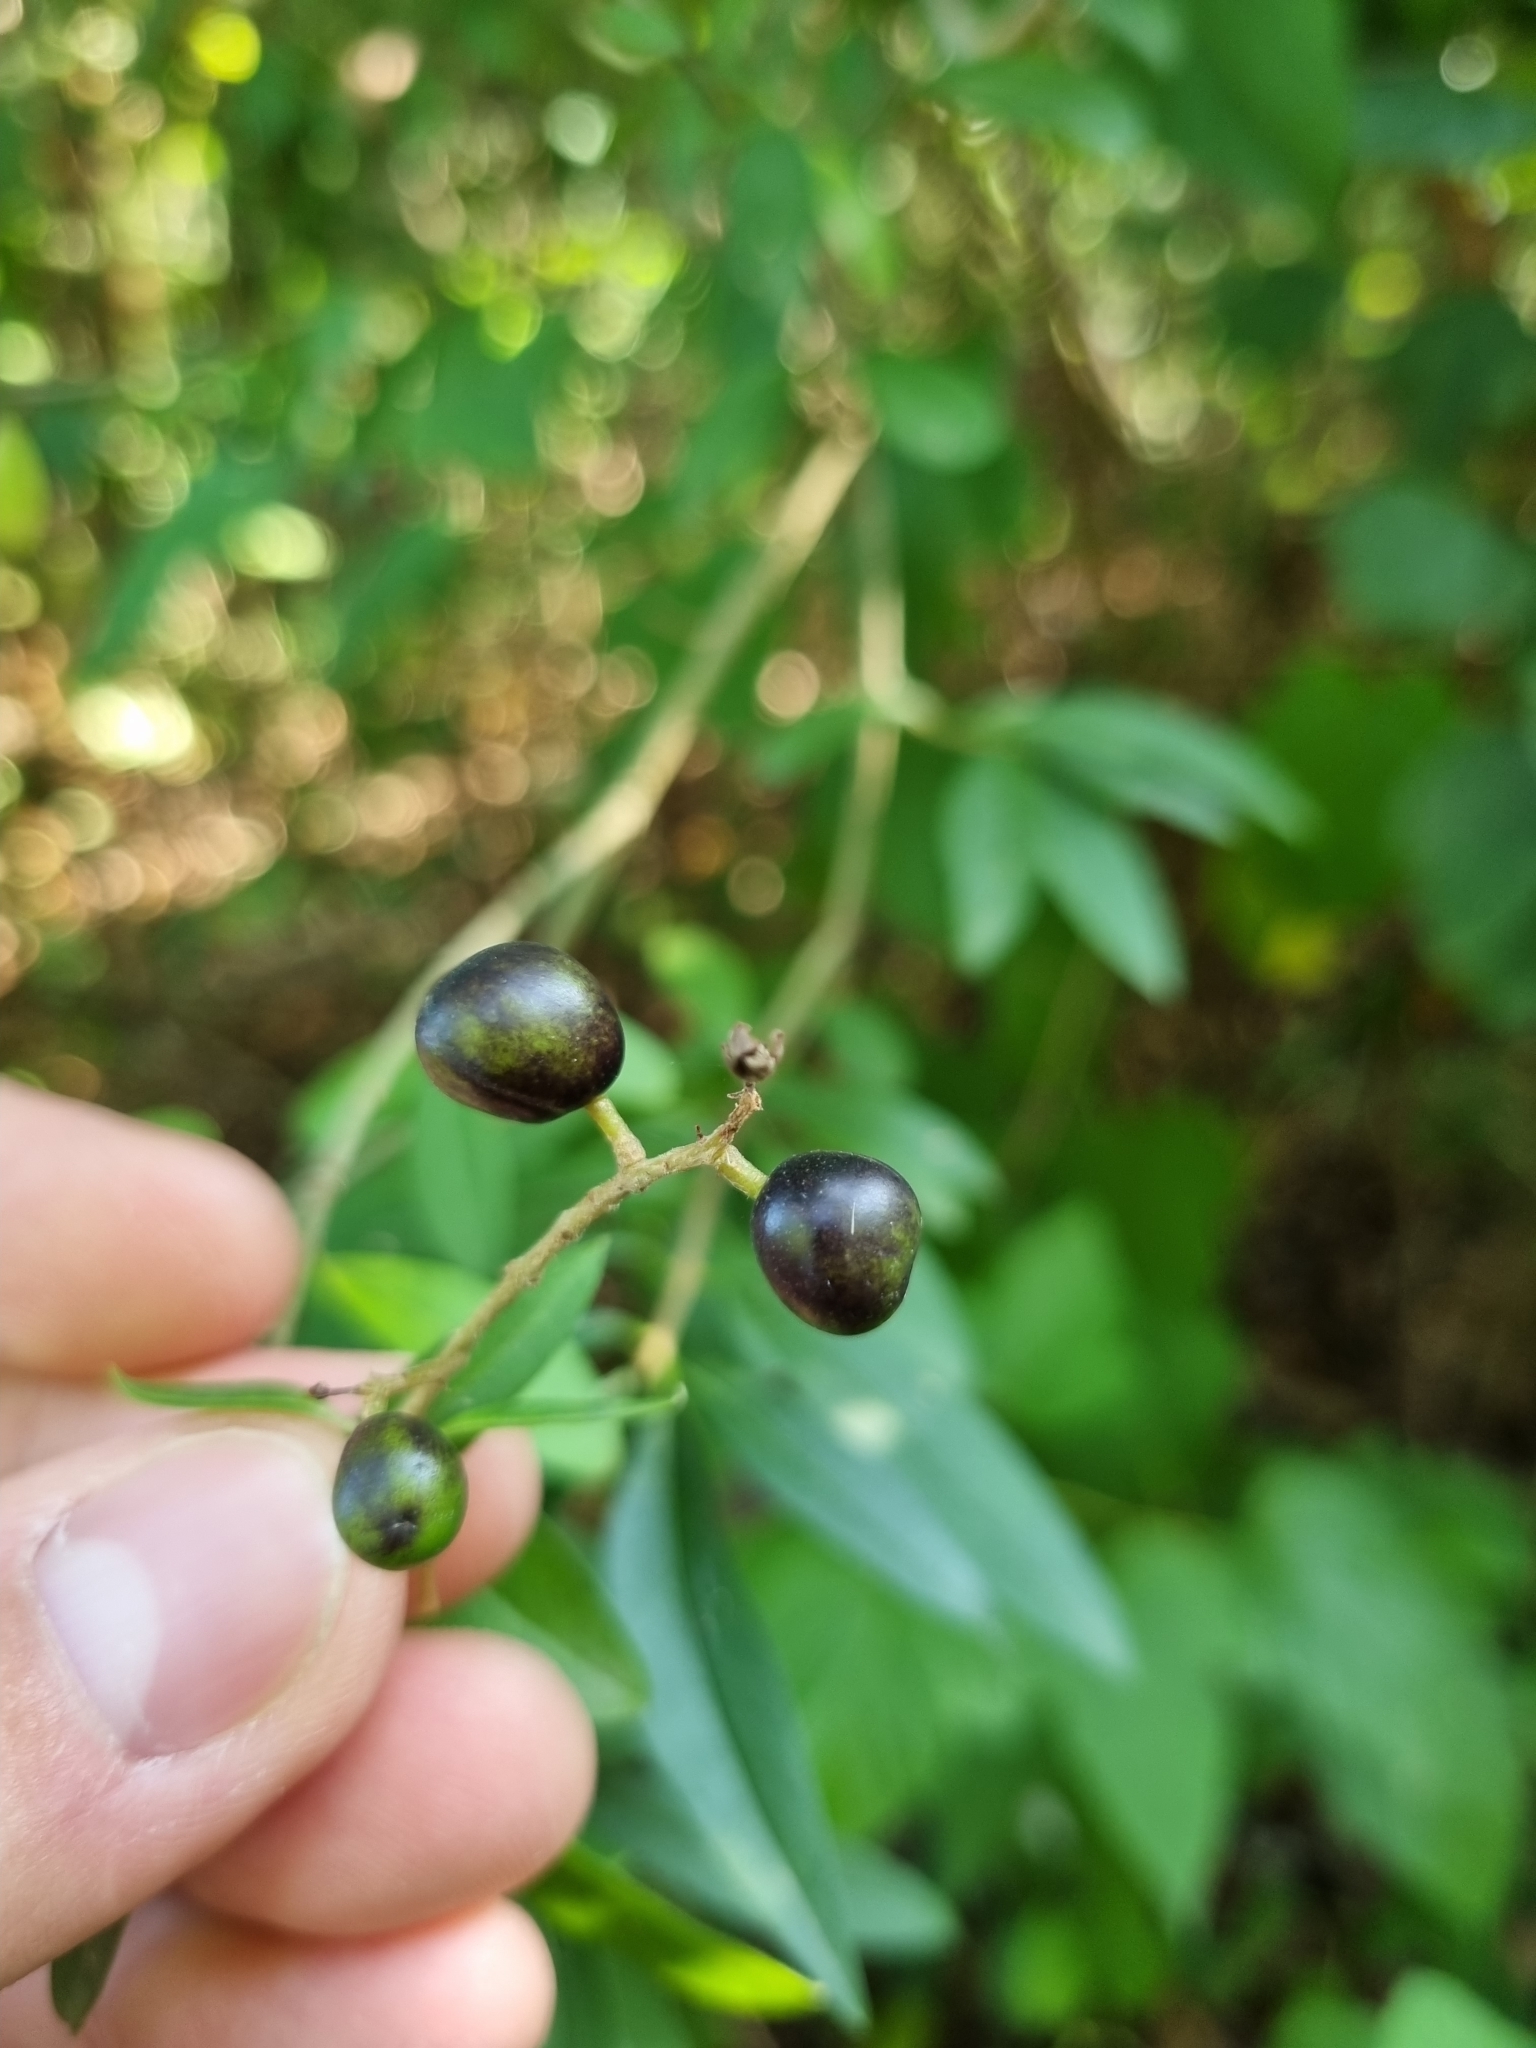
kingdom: Plantae
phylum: Tracheophyta
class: Magnoliopsida
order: Lamiales
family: Oleaceae
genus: Ligustrum
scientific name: Ligustrum vulgare
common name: Wild privet
